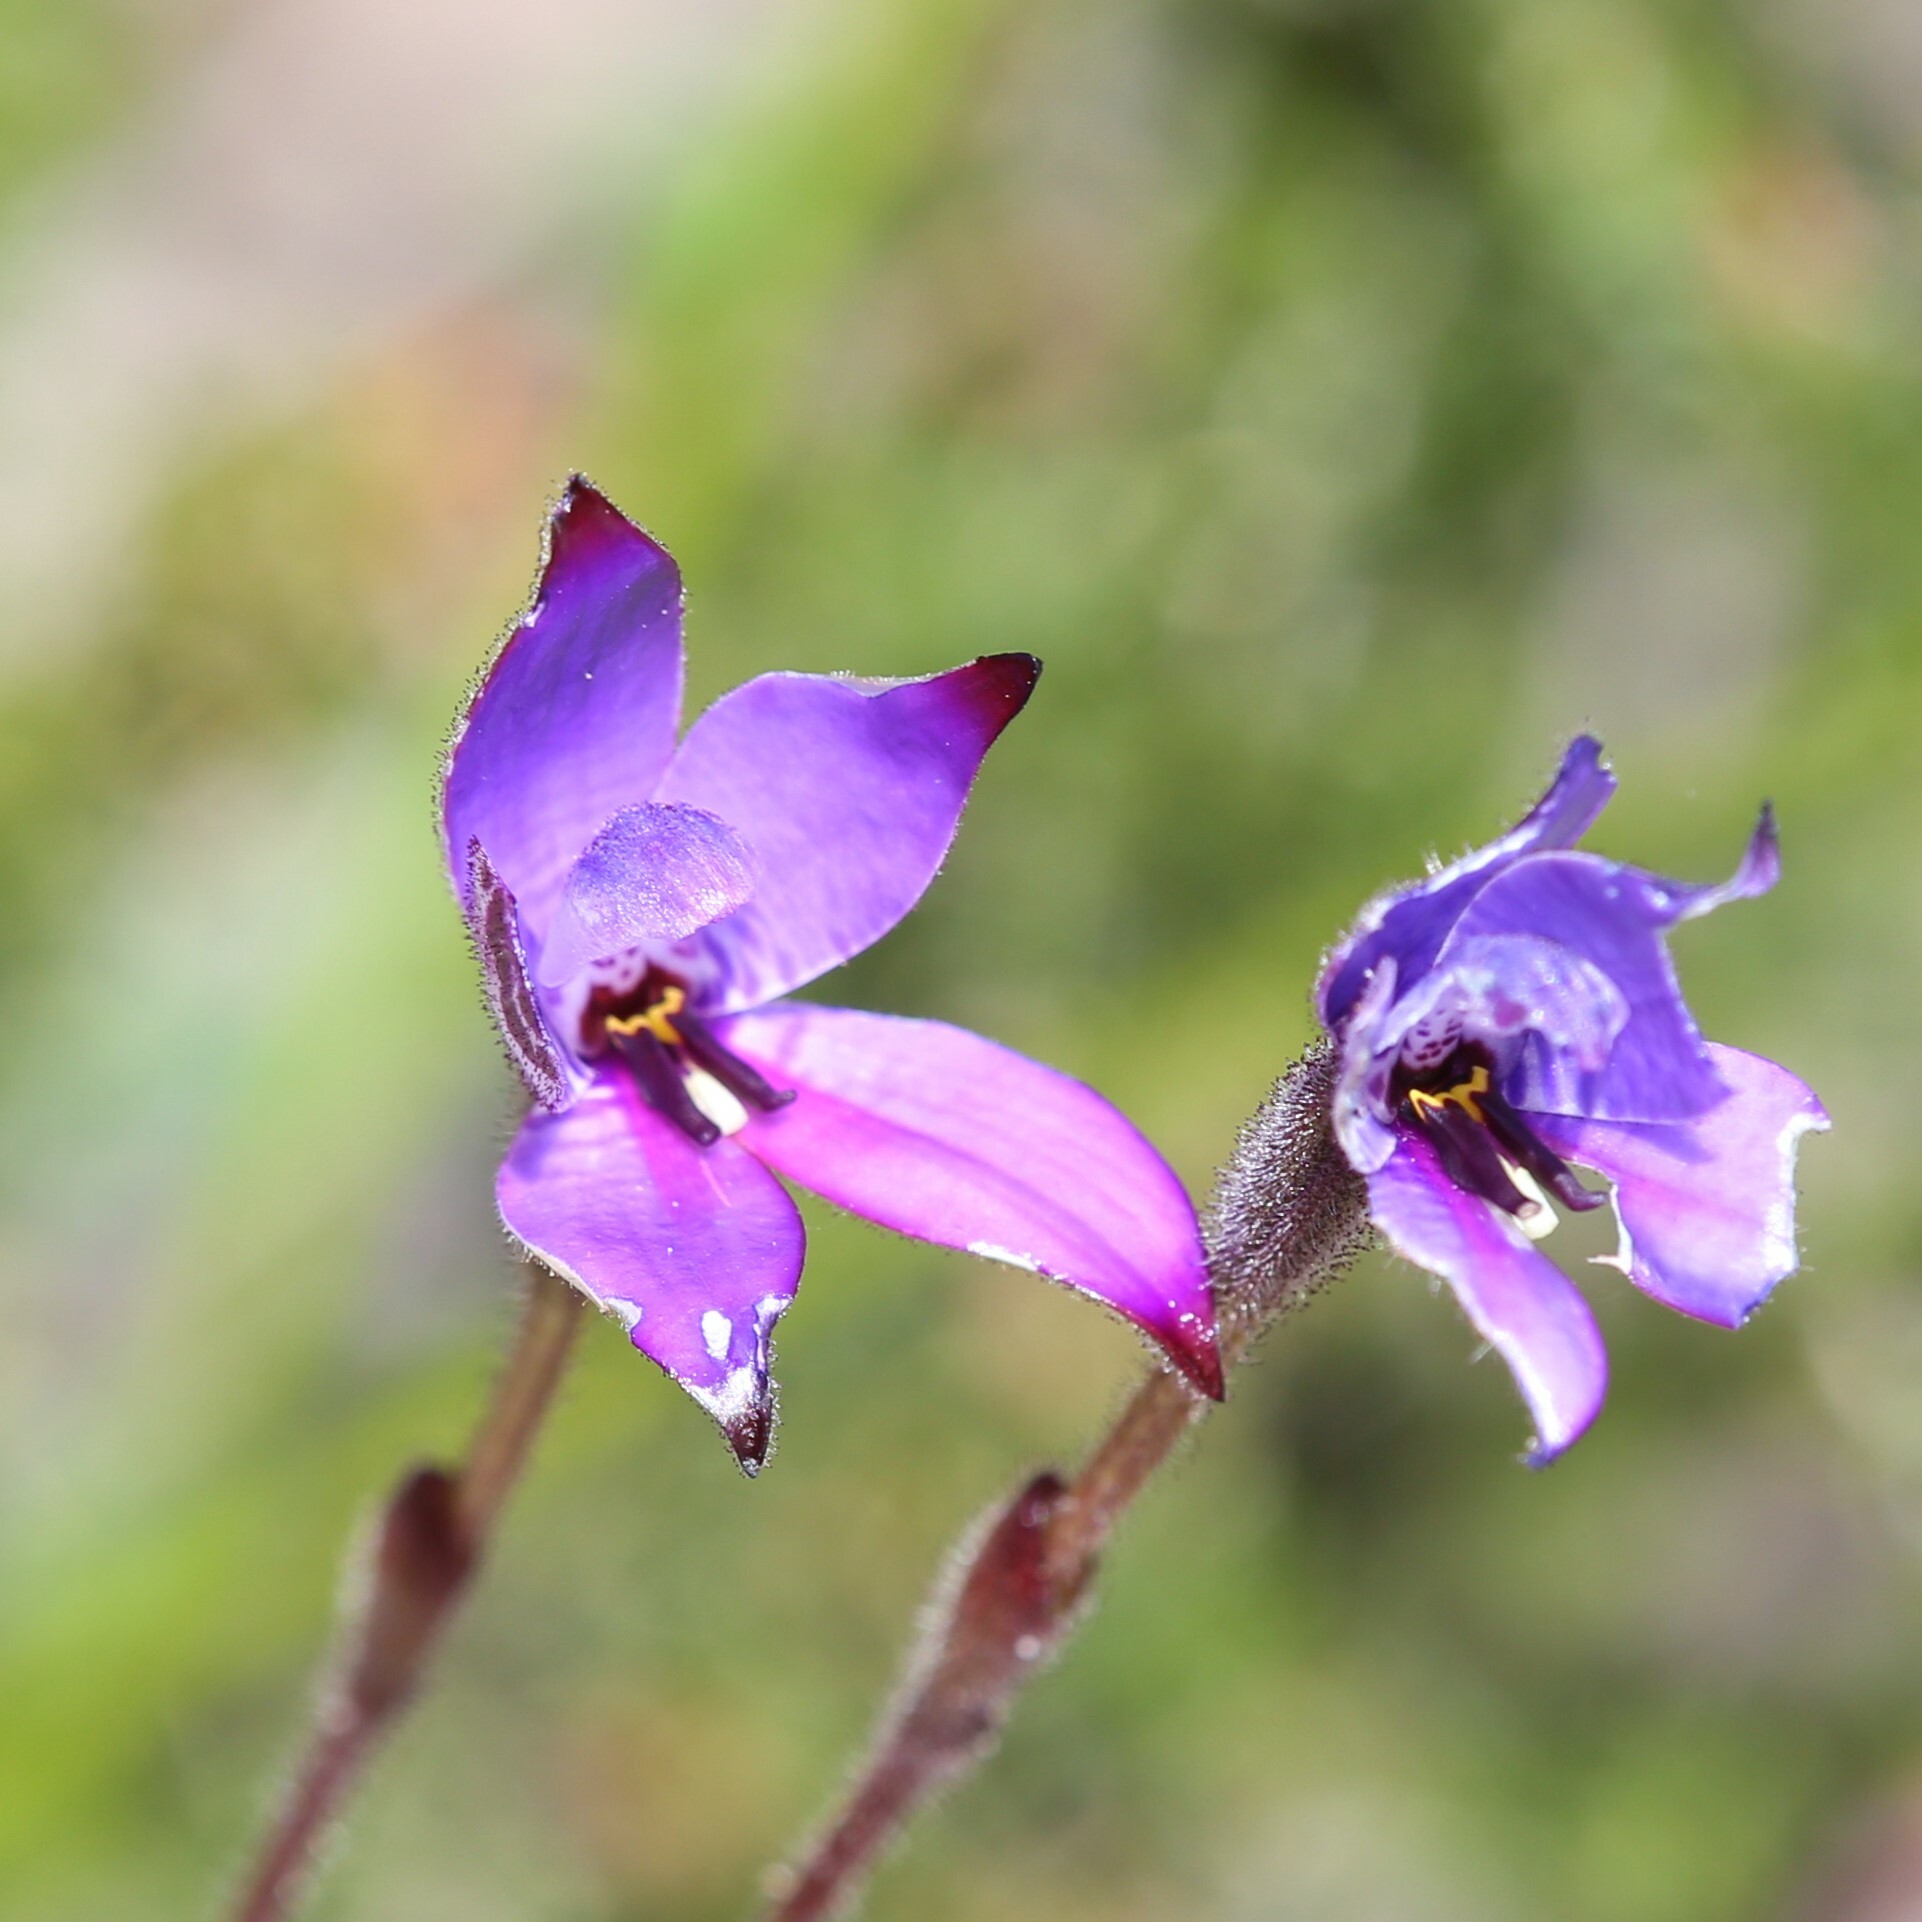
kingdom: Plantae
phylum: Tracheophyta
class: Liliopsida
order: Asparagales
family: Orchidaceae
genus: Caladenia
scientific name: Caladenia brunonis
